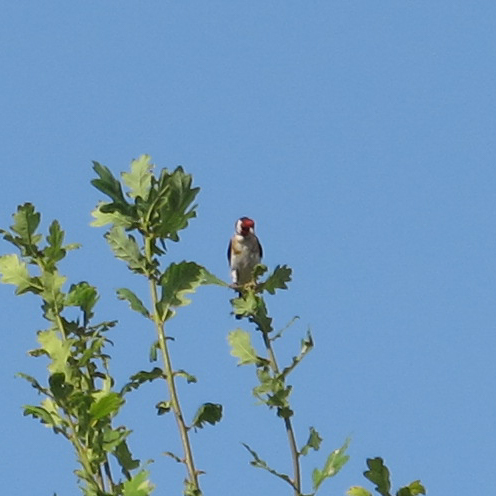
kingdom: Animalia
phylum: Chordata
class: Aves
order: Passeriformes
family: Fringillidae
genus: Carduelis
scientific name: Carduelis carduelis
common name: European goldfinch
